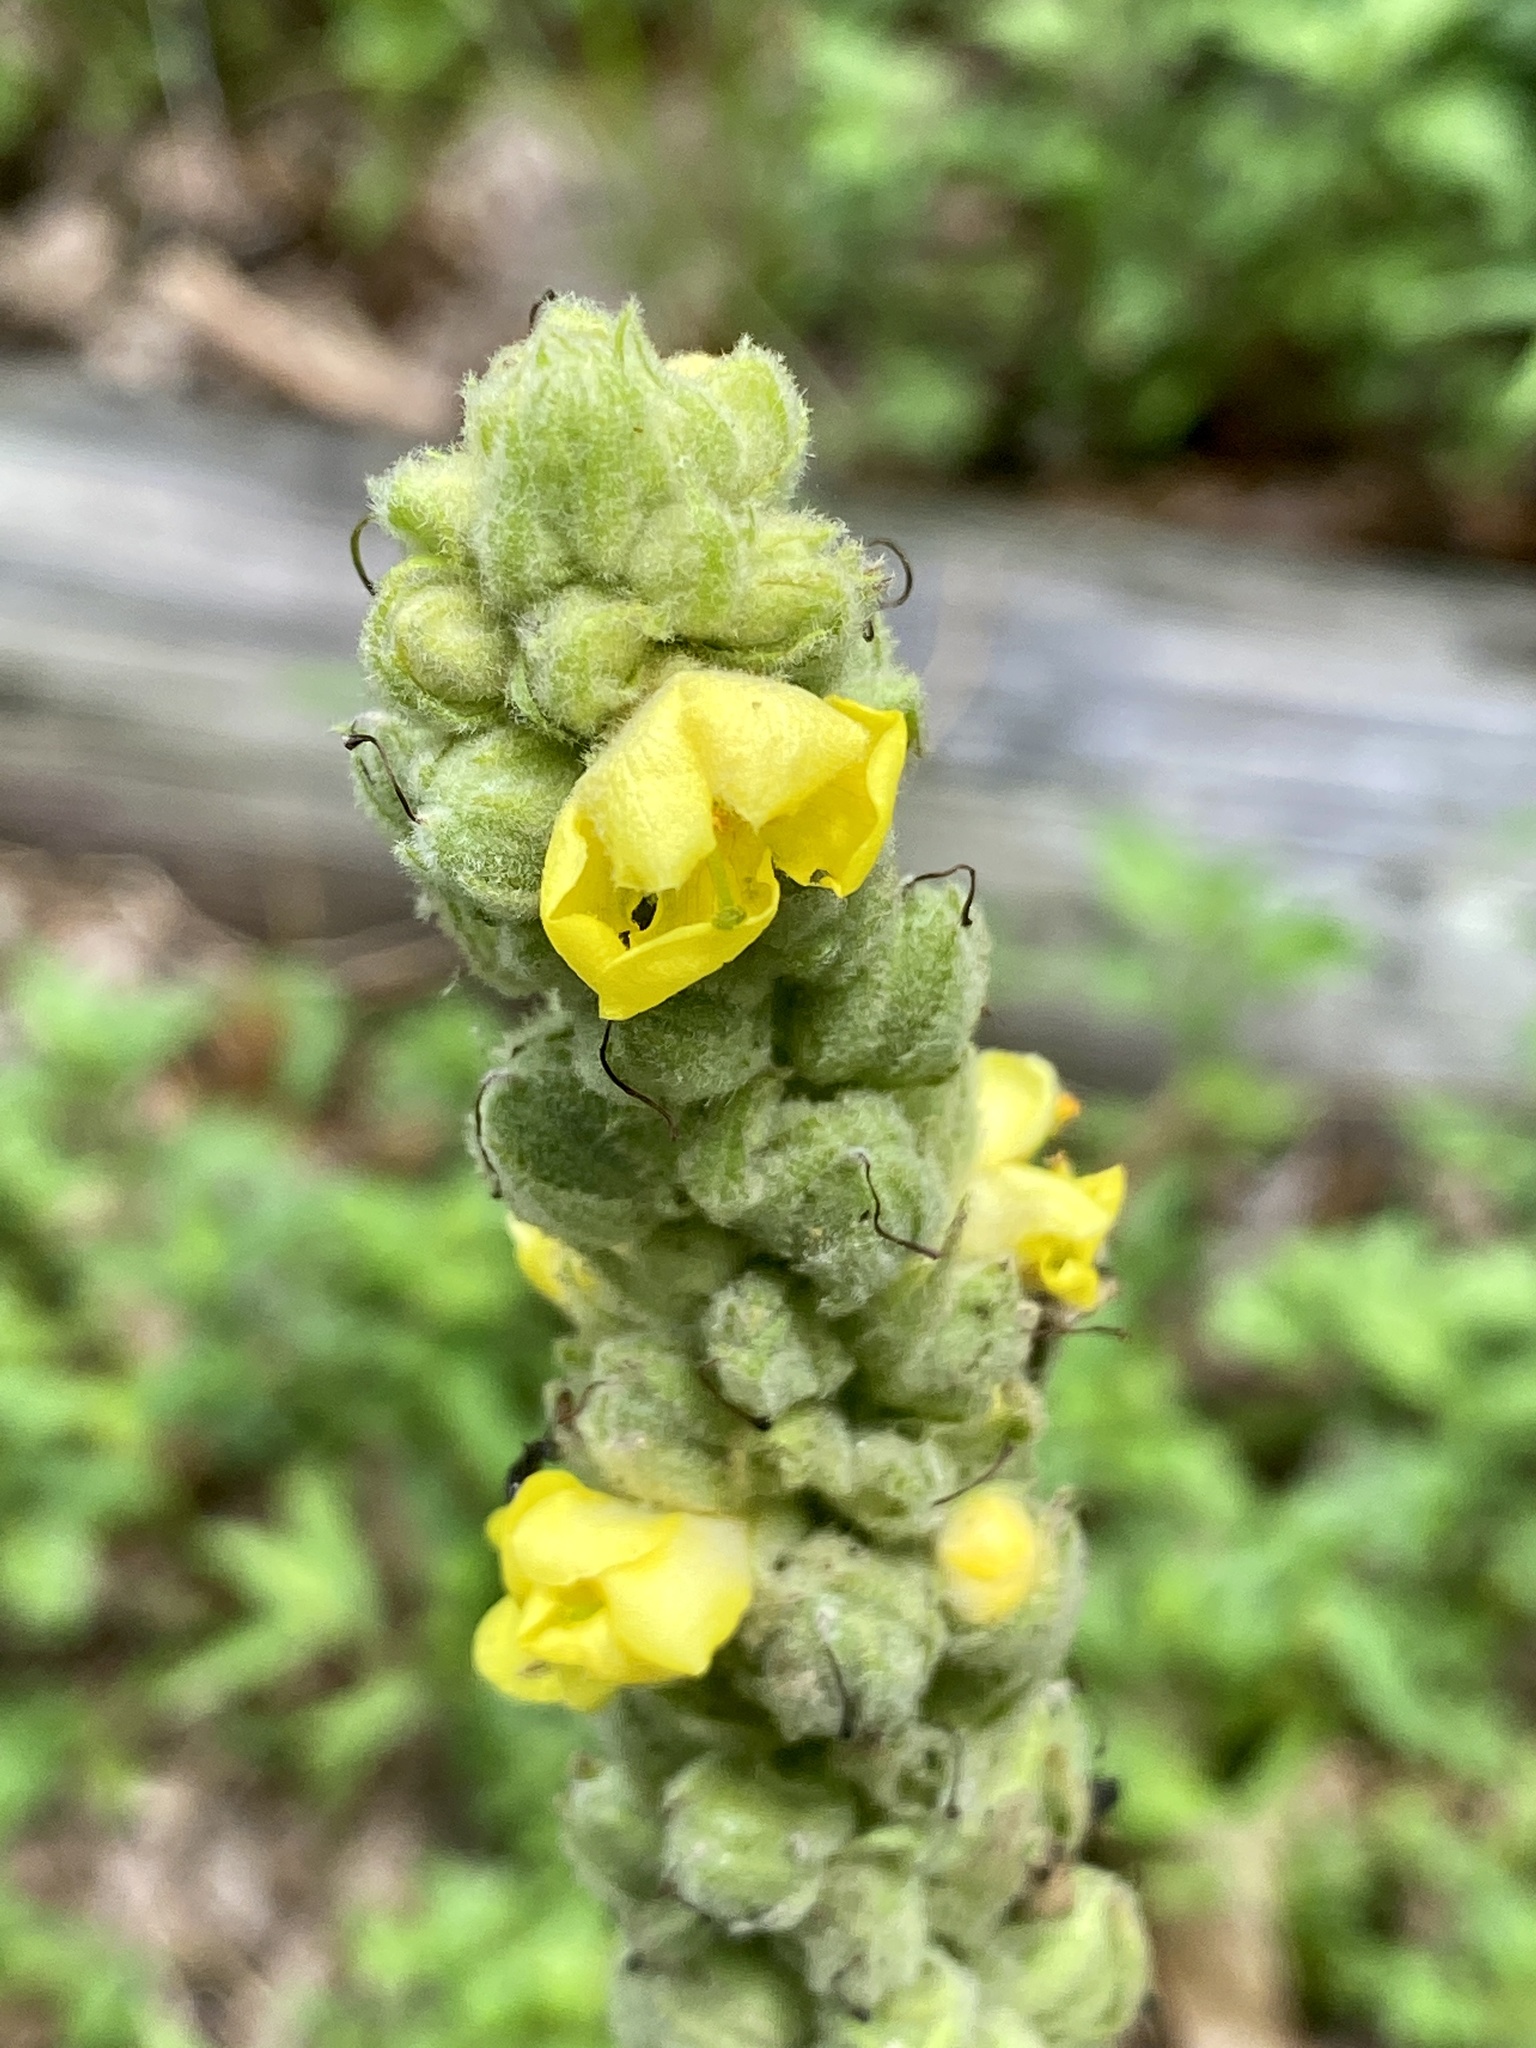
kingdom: Plantae
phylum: Tracheophyta
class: Magnoliopsida
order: Lamiales
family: Scrophulariaceae
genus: Verbascum
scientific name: Verbascum thapsus
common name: Common mullein
